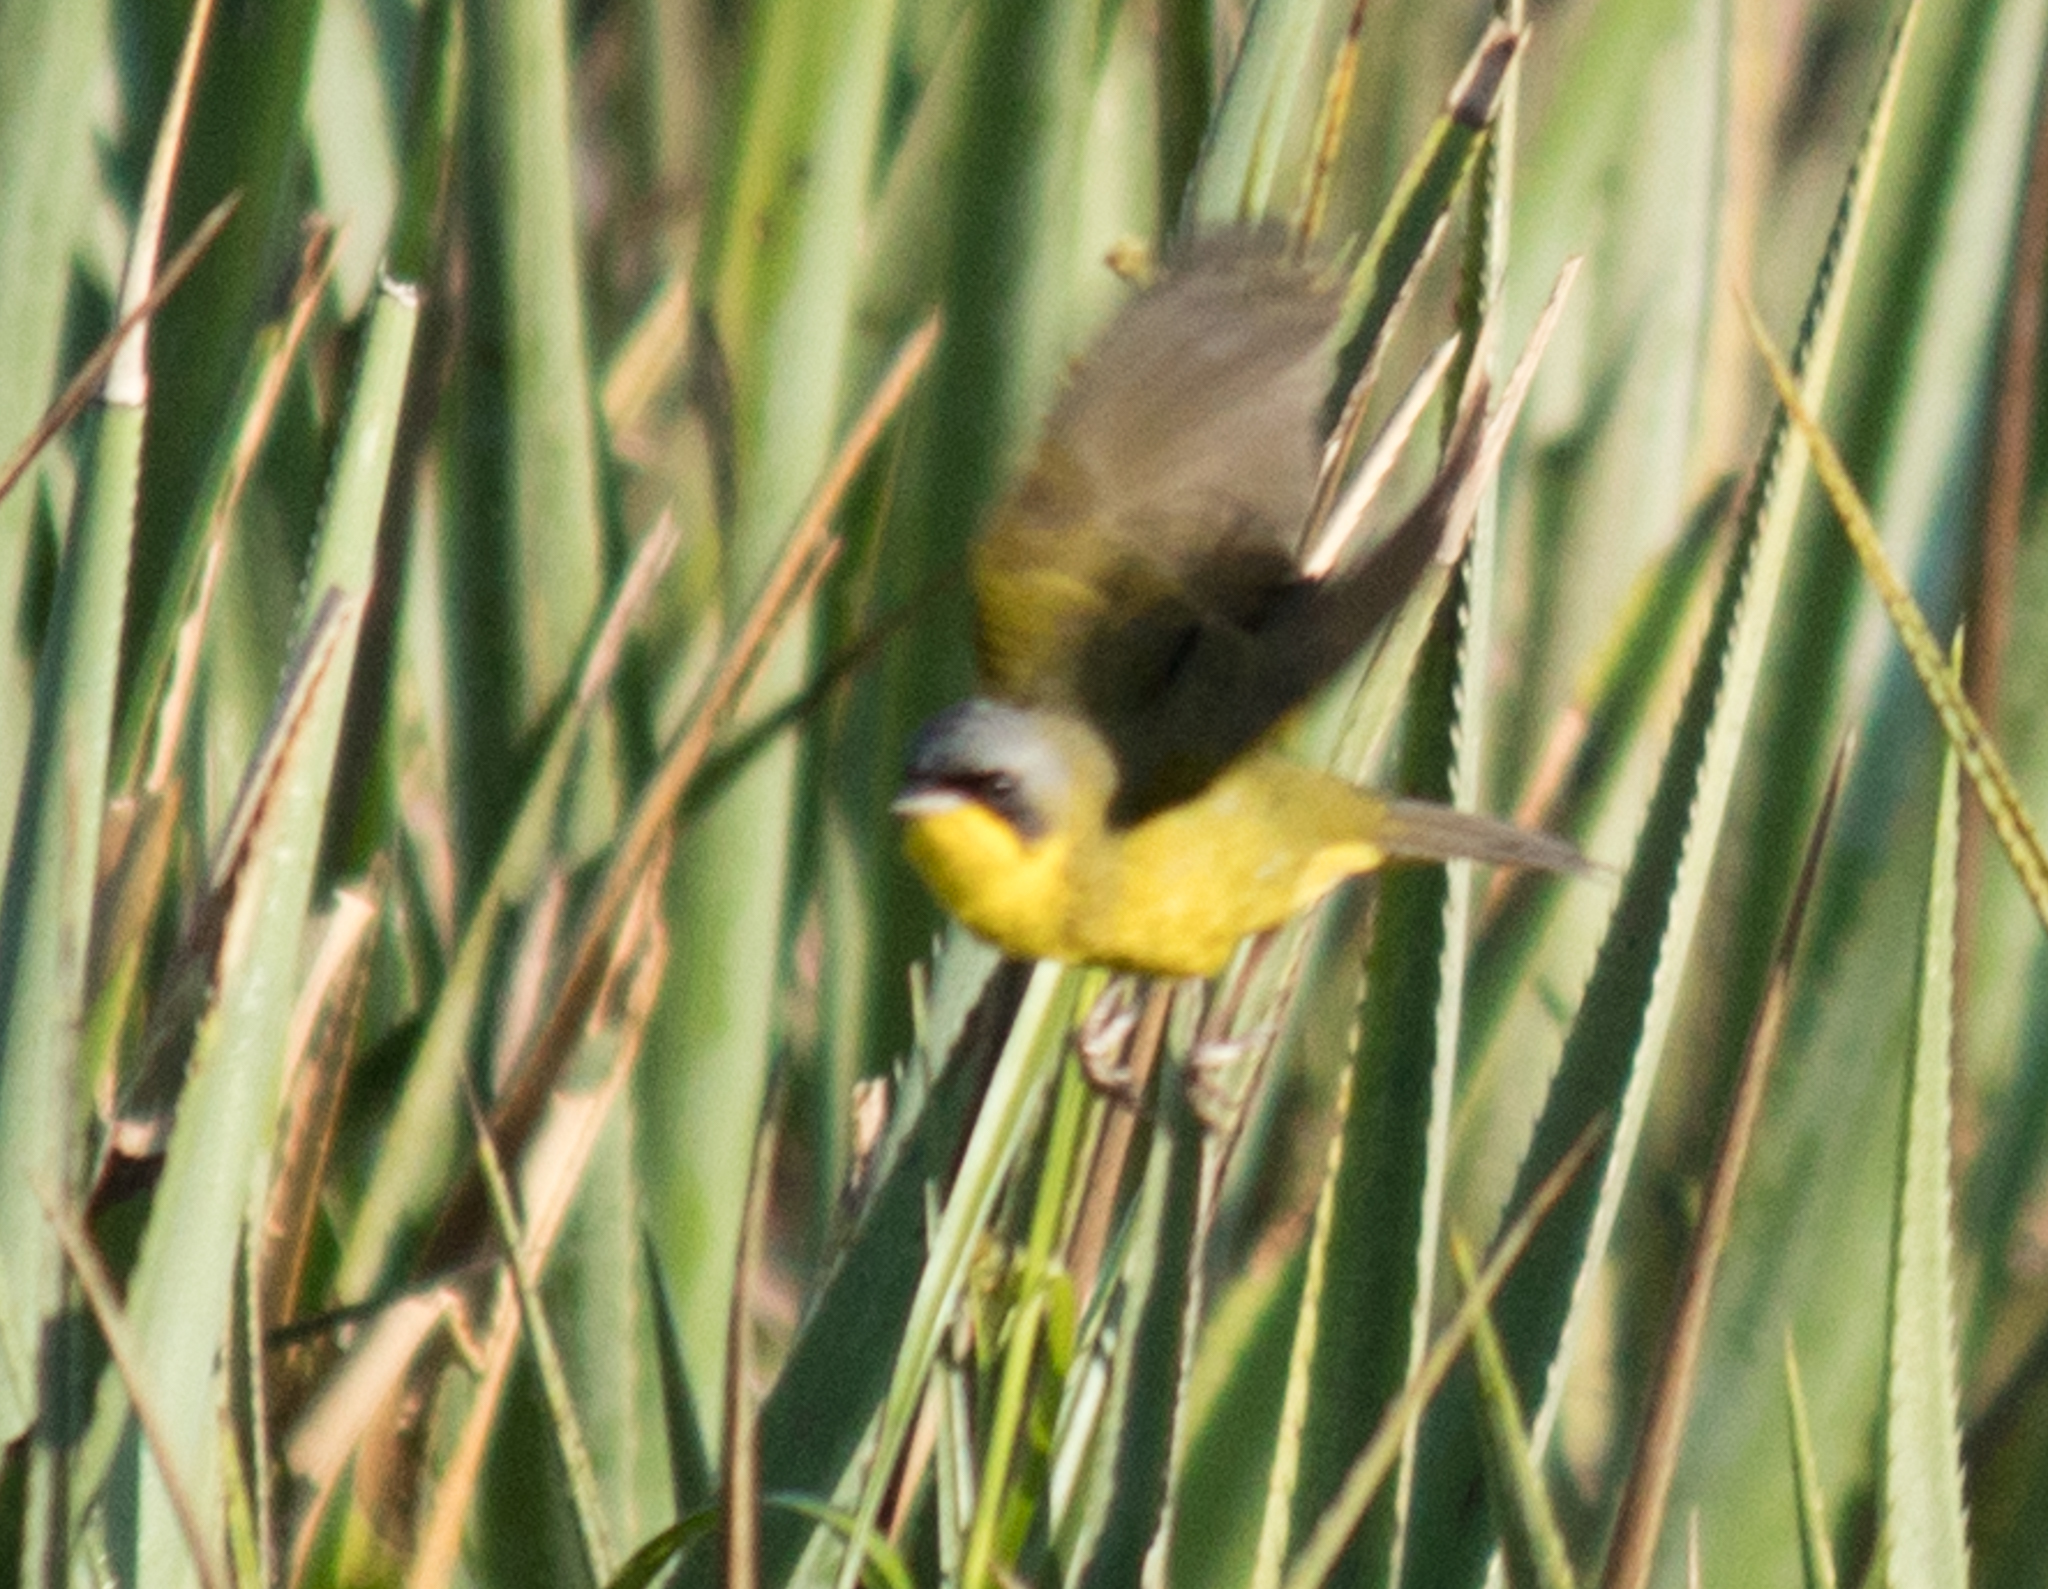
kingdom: Animalia
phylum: Chordata
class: Aves
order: Passeriformes
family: Parulidae
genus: Geothlypis
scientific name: Geothlypis velata
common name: Southern yellowthroat
